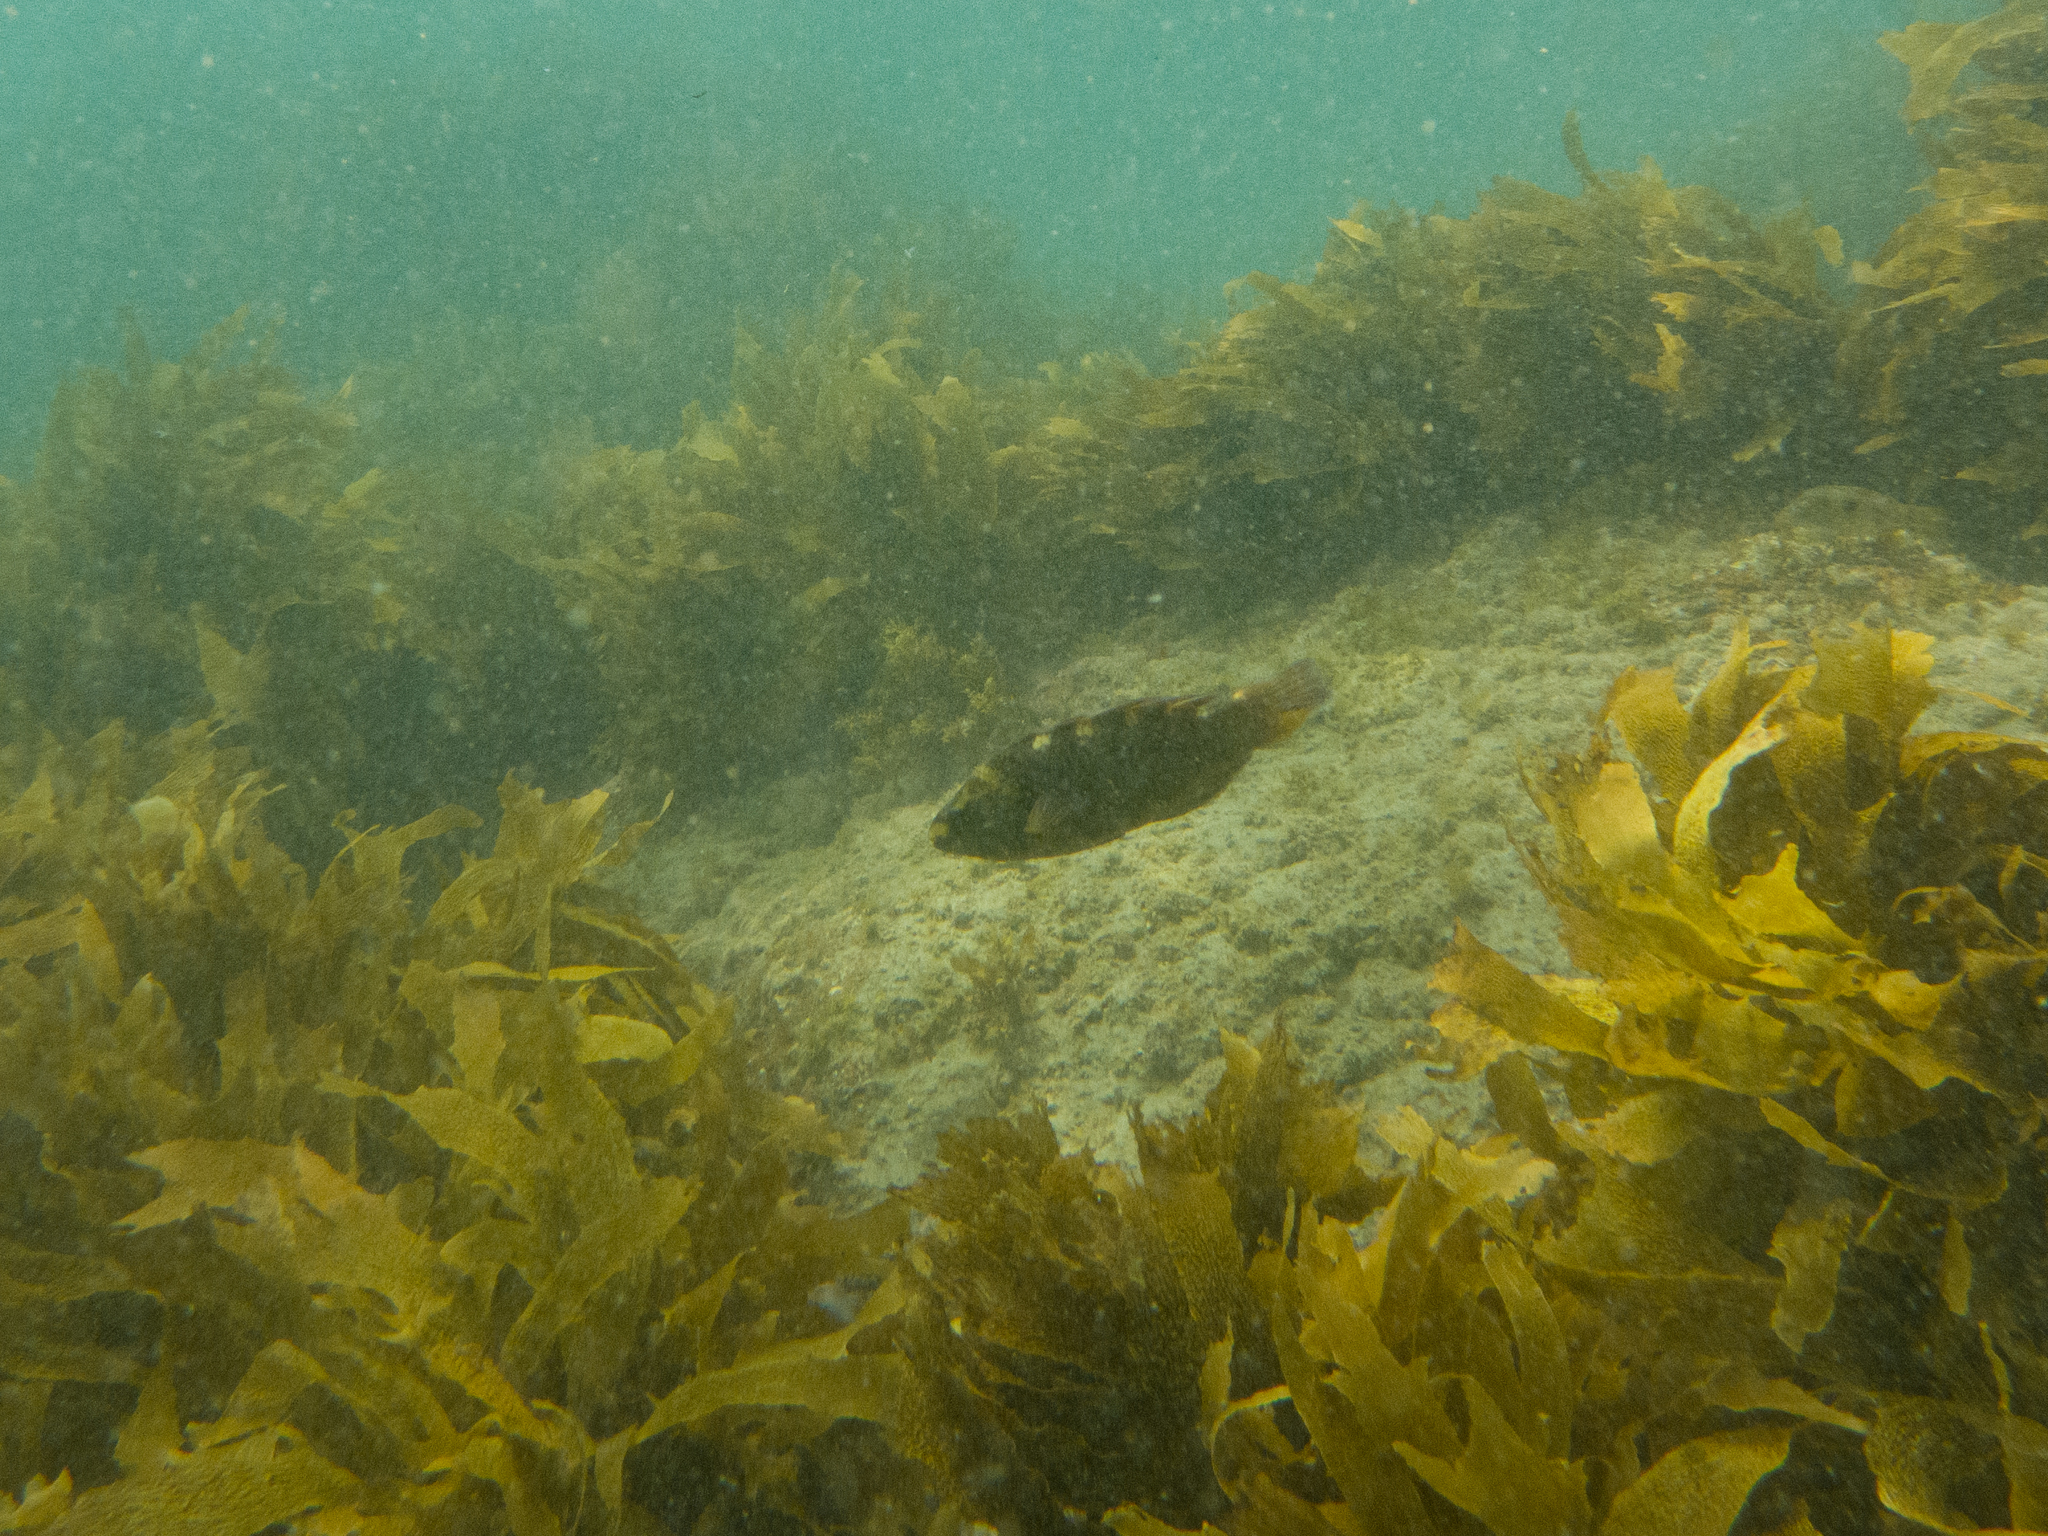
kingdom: Animalia
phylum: Chordata
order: Perciformes
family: Labridae
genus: Notolabrus
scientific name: Notolabrus fucicola
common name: Banded parrotfish
